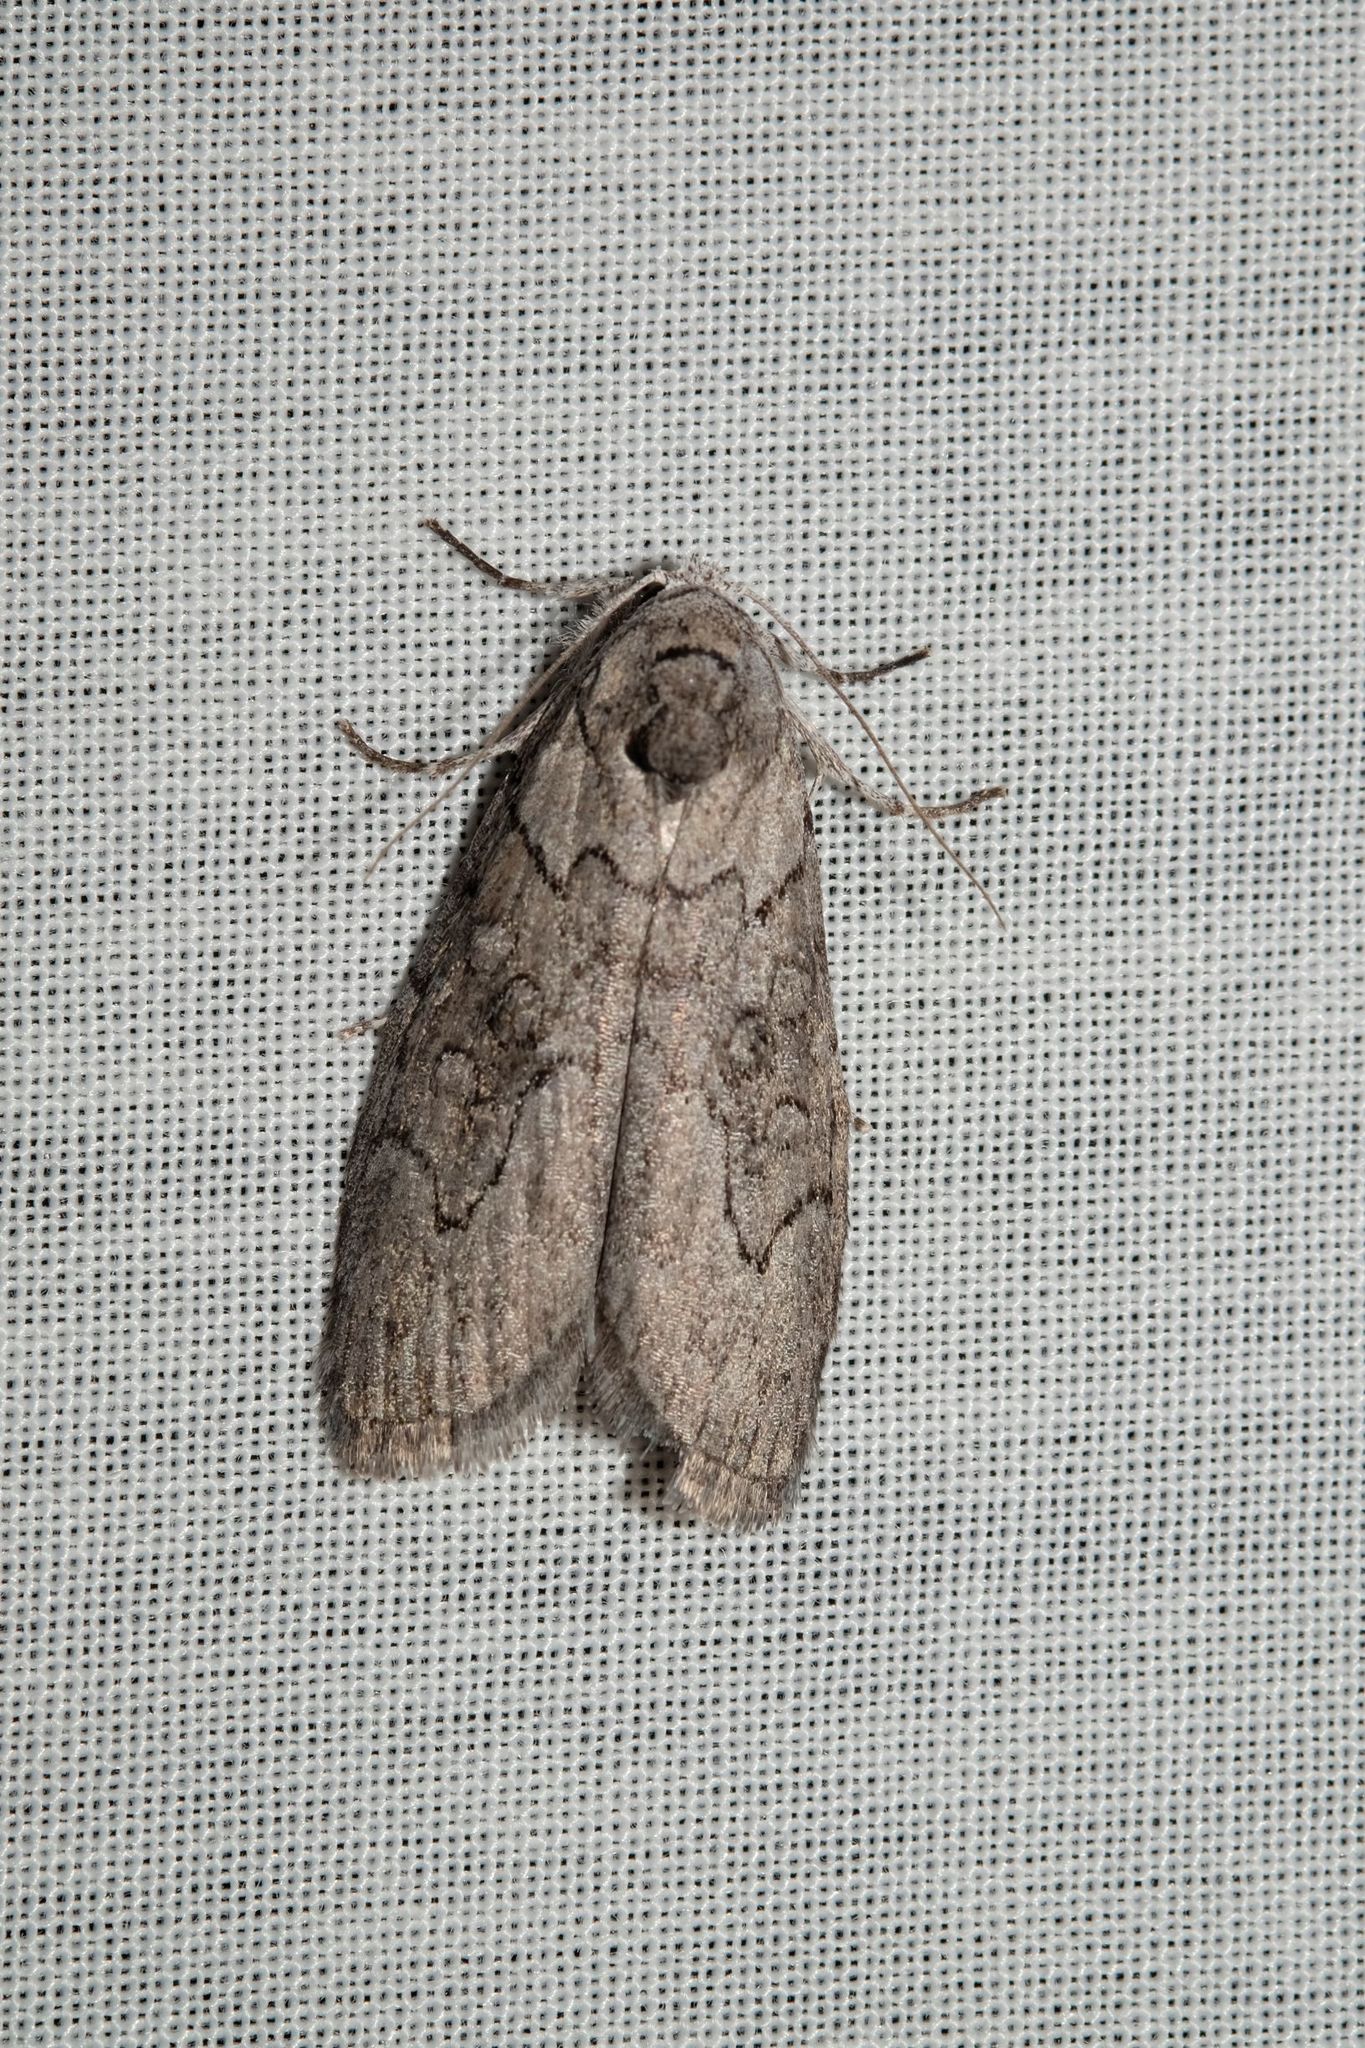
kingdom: Animalia
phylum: Arthropoda
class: Insecta
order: Lepidoptera
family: Nolidae
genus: Elesma
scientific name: Elesma subglauca
